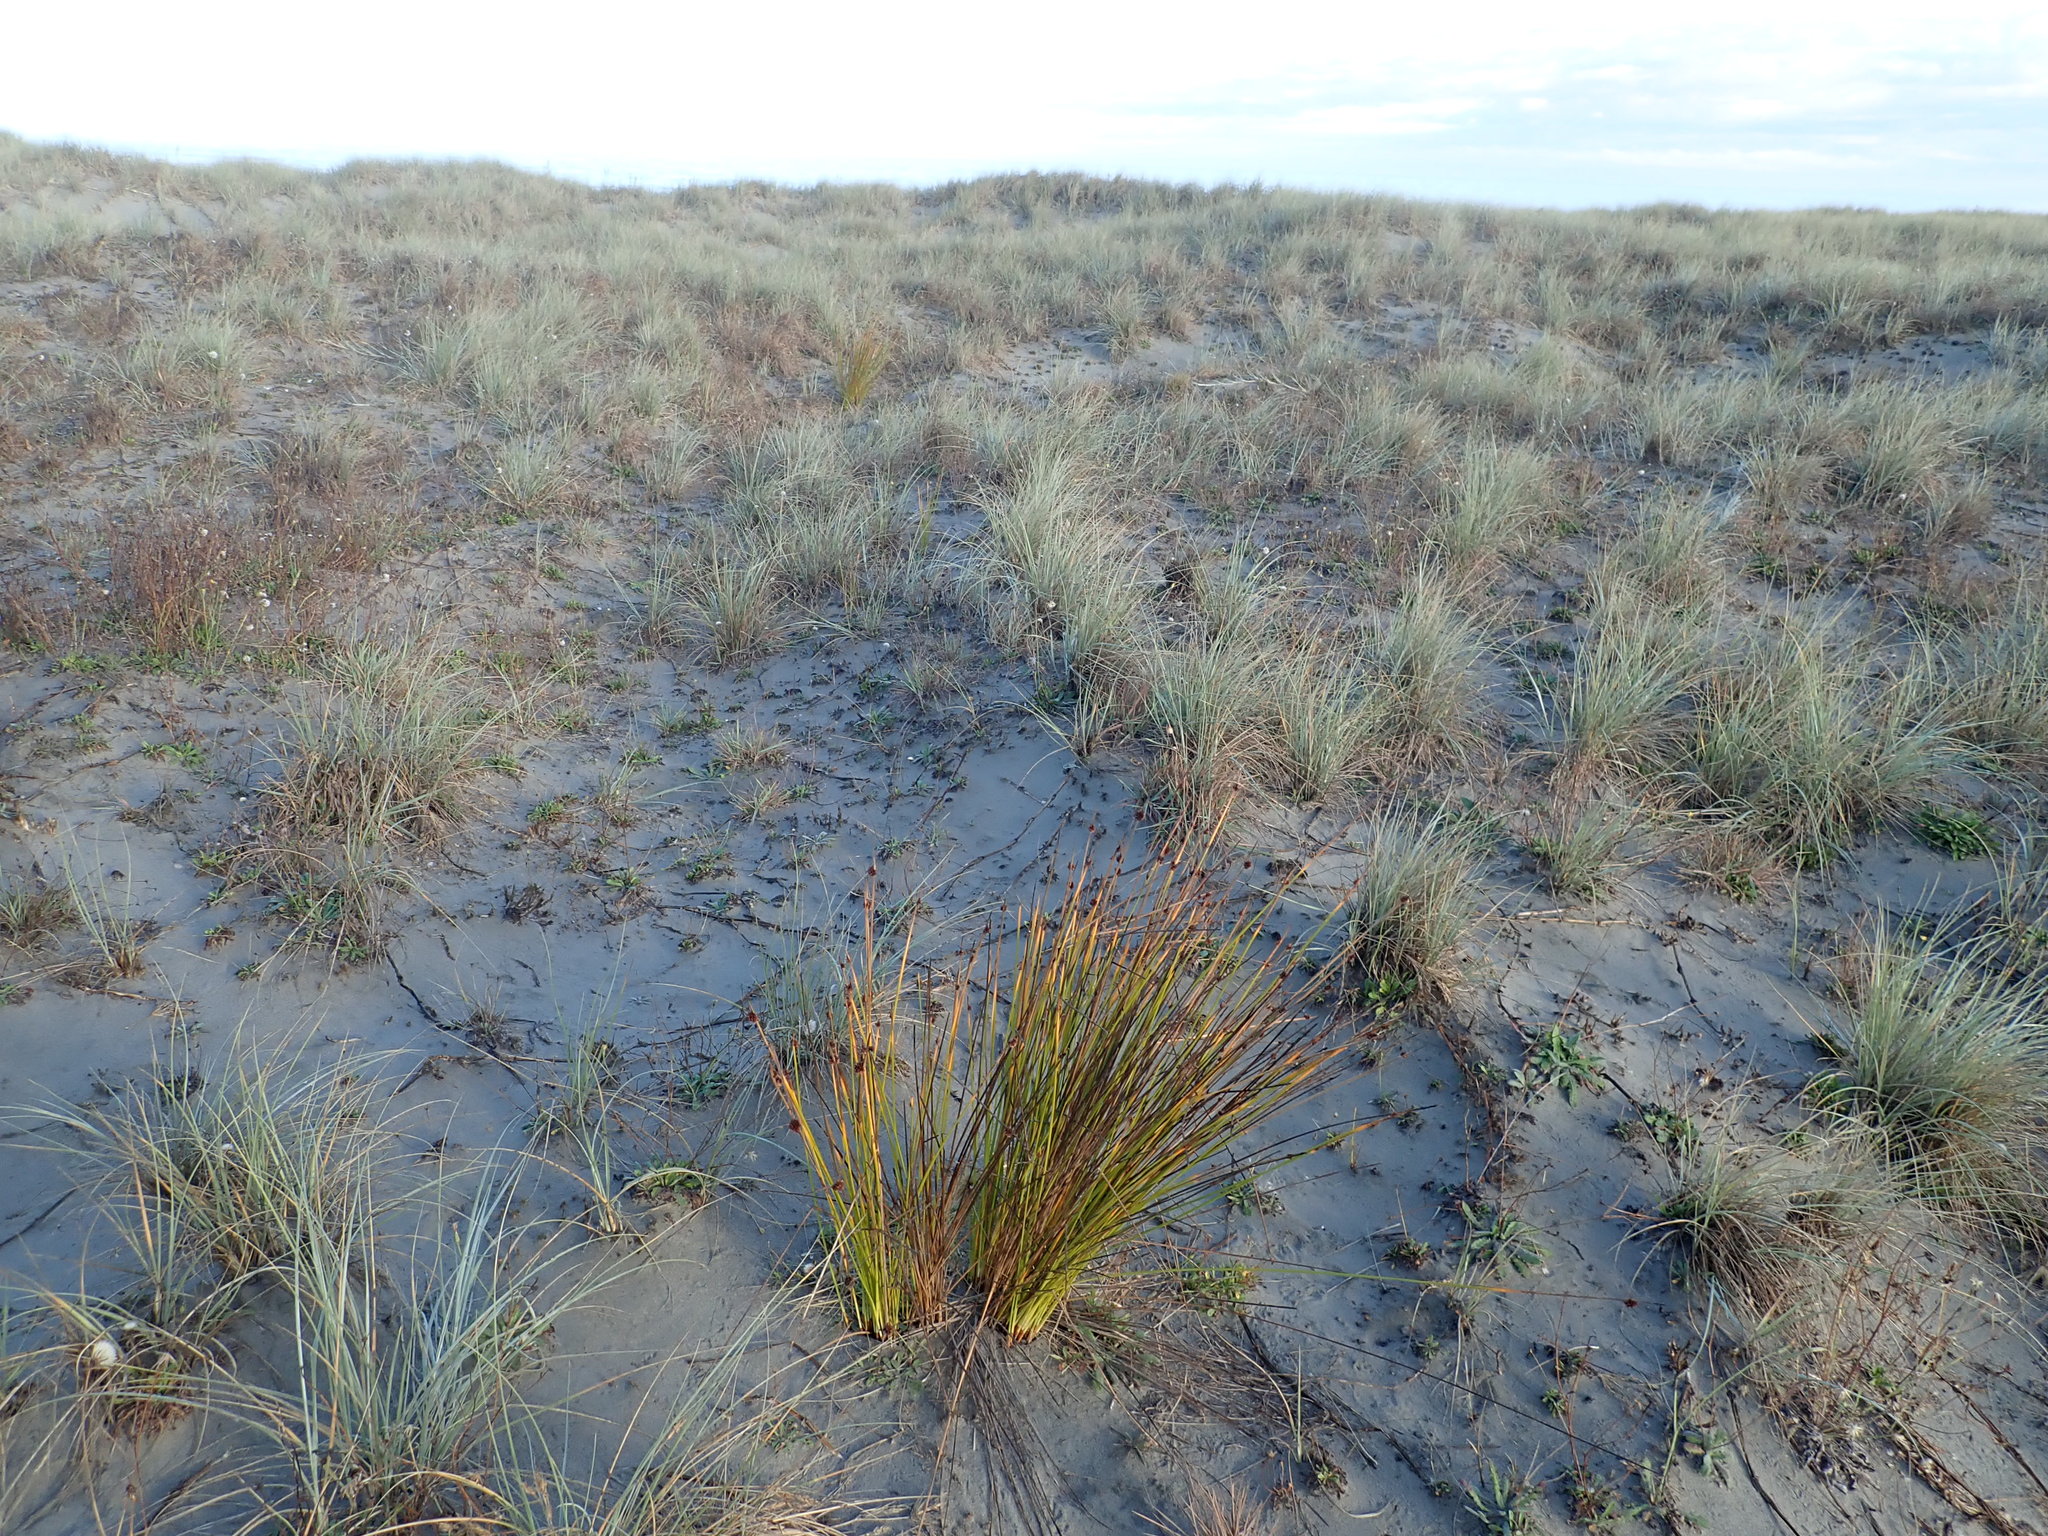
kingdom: Plantae
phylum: Tracheophyta
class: Liliopsida
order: Poales
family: Cyperaceae
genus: Ficinia
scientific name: Ficinia nodosa
